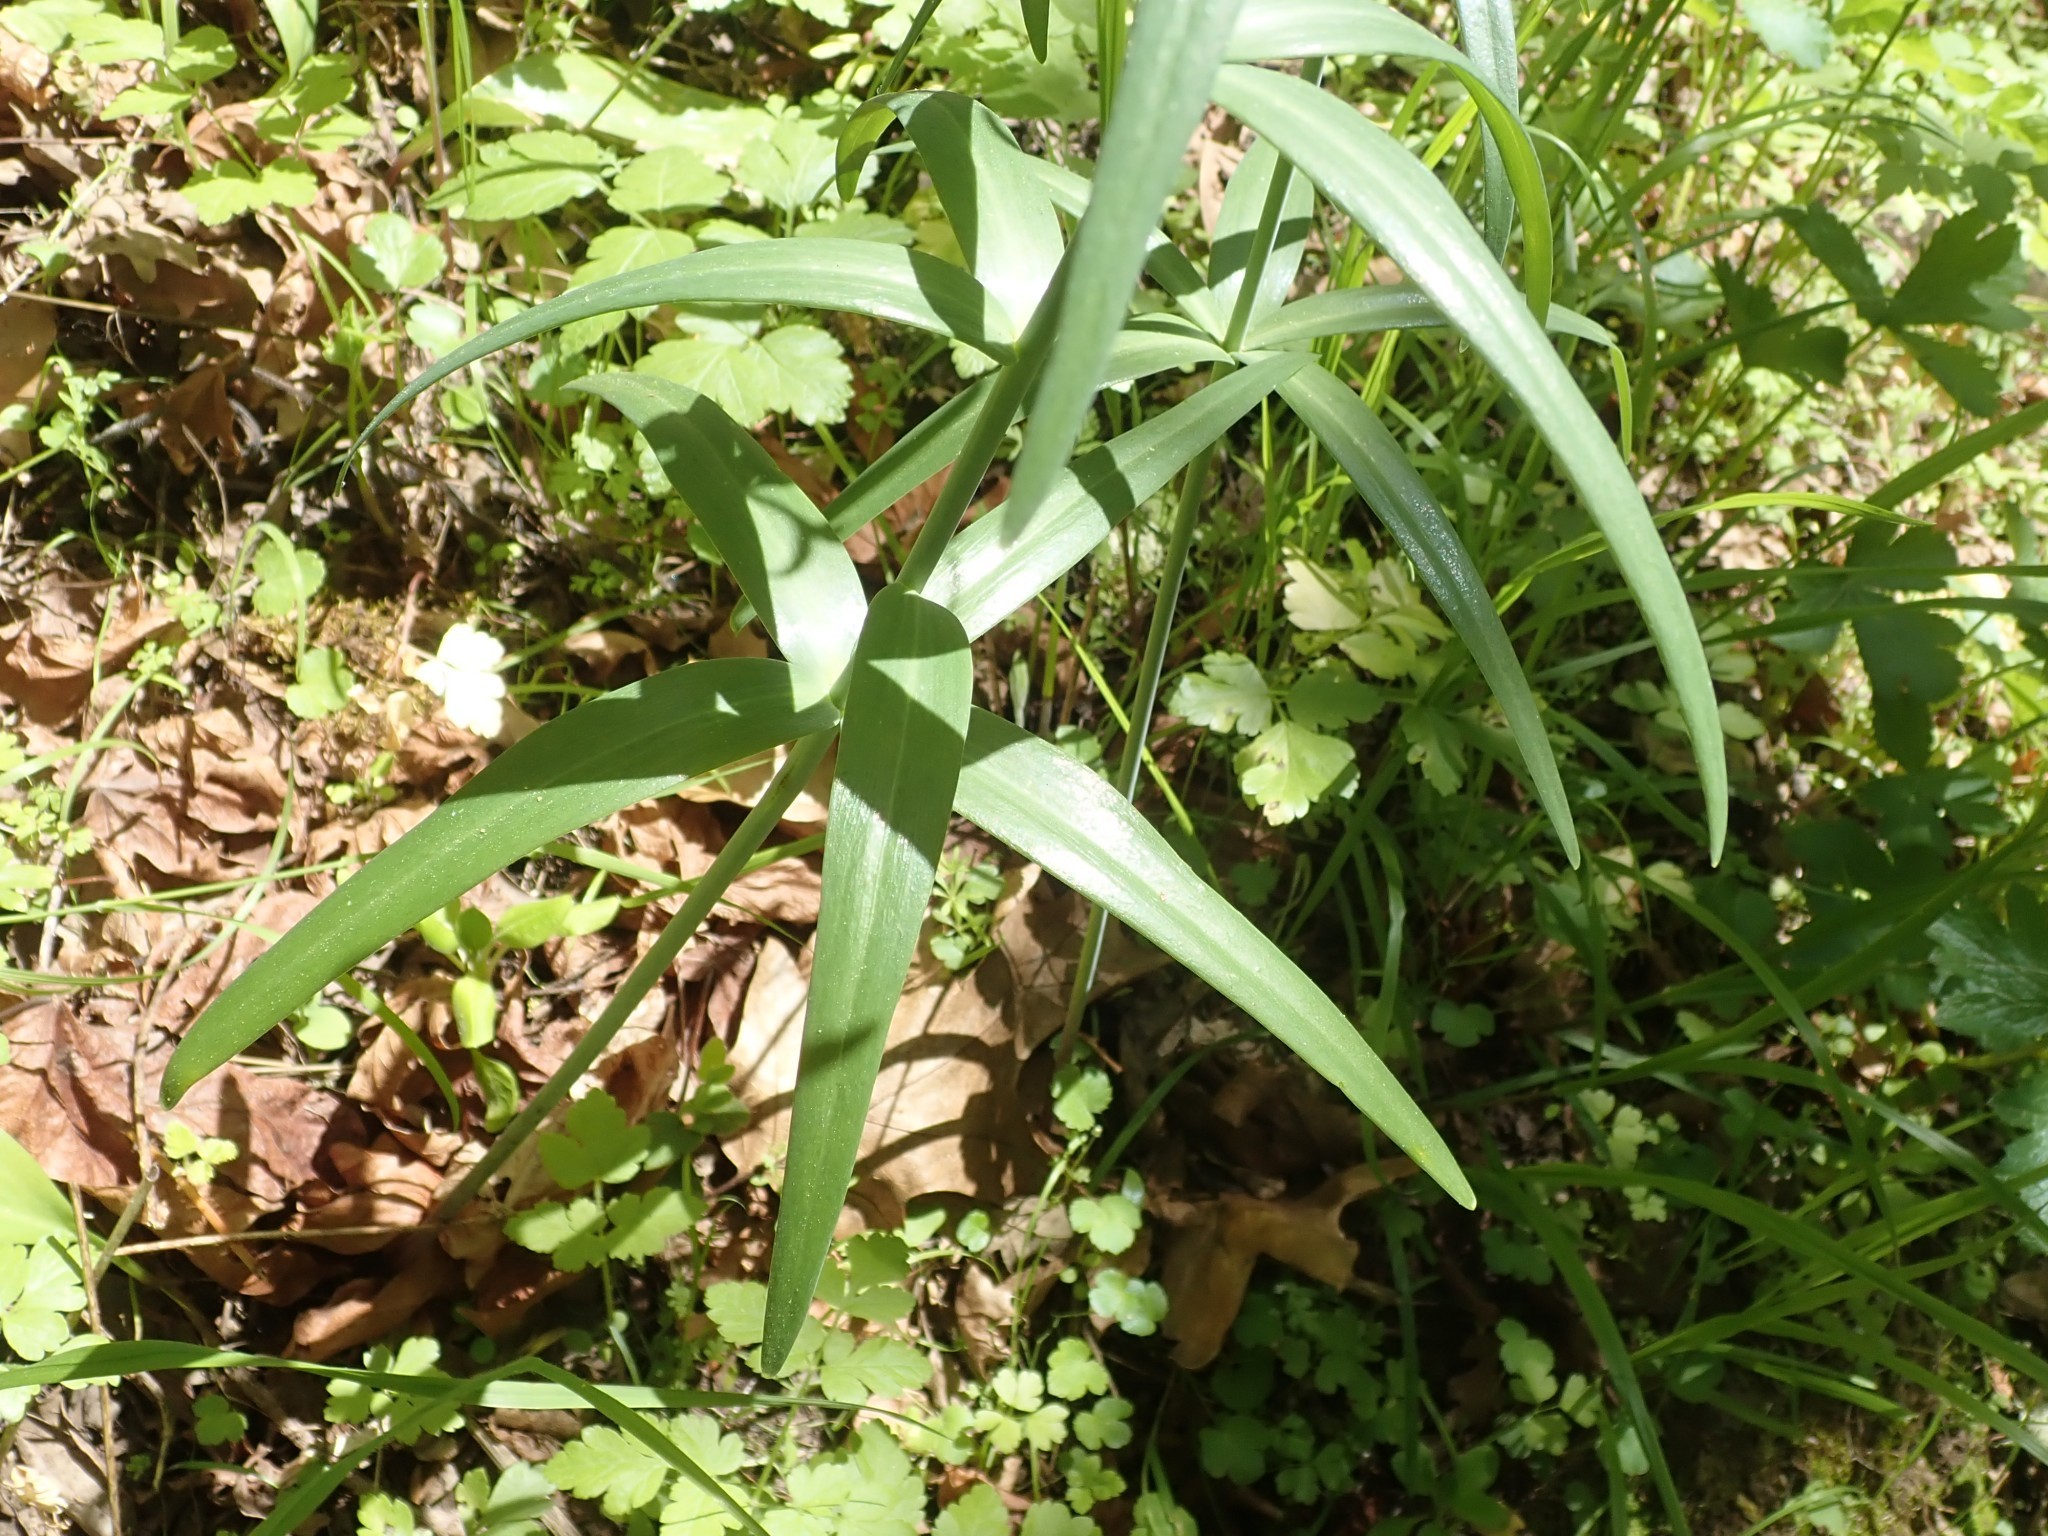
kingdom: Plantae
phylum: Tracheophyta
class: Liliopsida
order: Liliales
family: Liliaceae
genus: Fritillaria
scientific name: Fritillaria affinis
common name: Ojai fritillary
